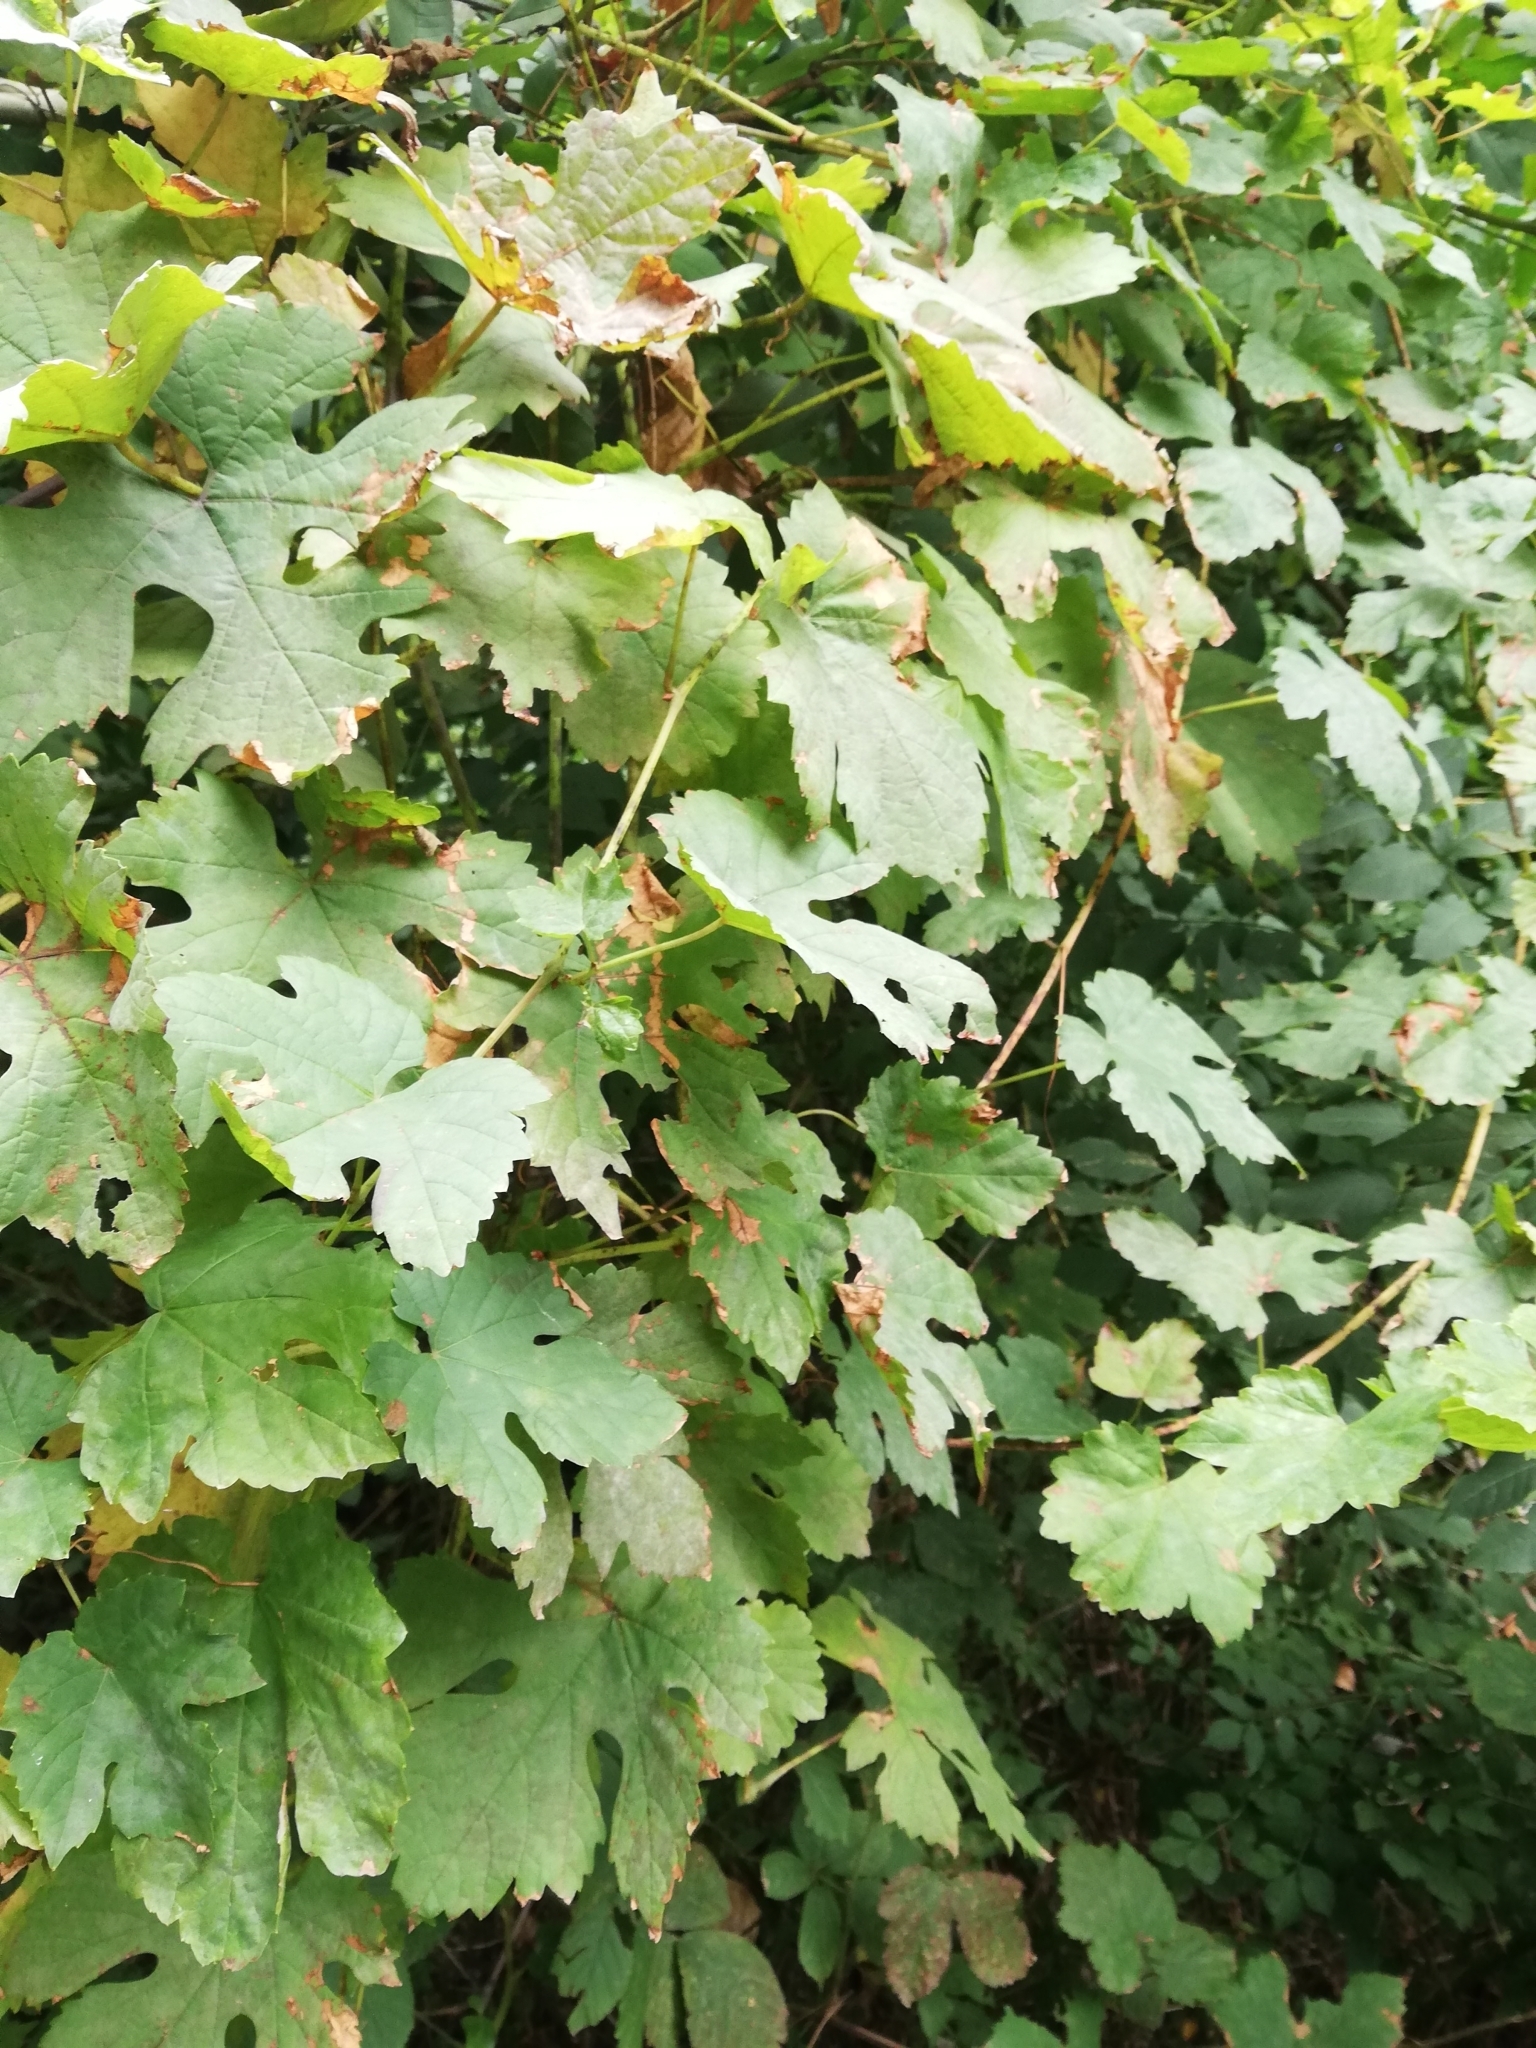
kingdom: Plantae
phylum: Tracheophyta
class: Magnoliopsida
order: Vitales
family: Vitaceae
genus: Vitis
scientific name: Vitis vinifera
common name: Grape-vine
